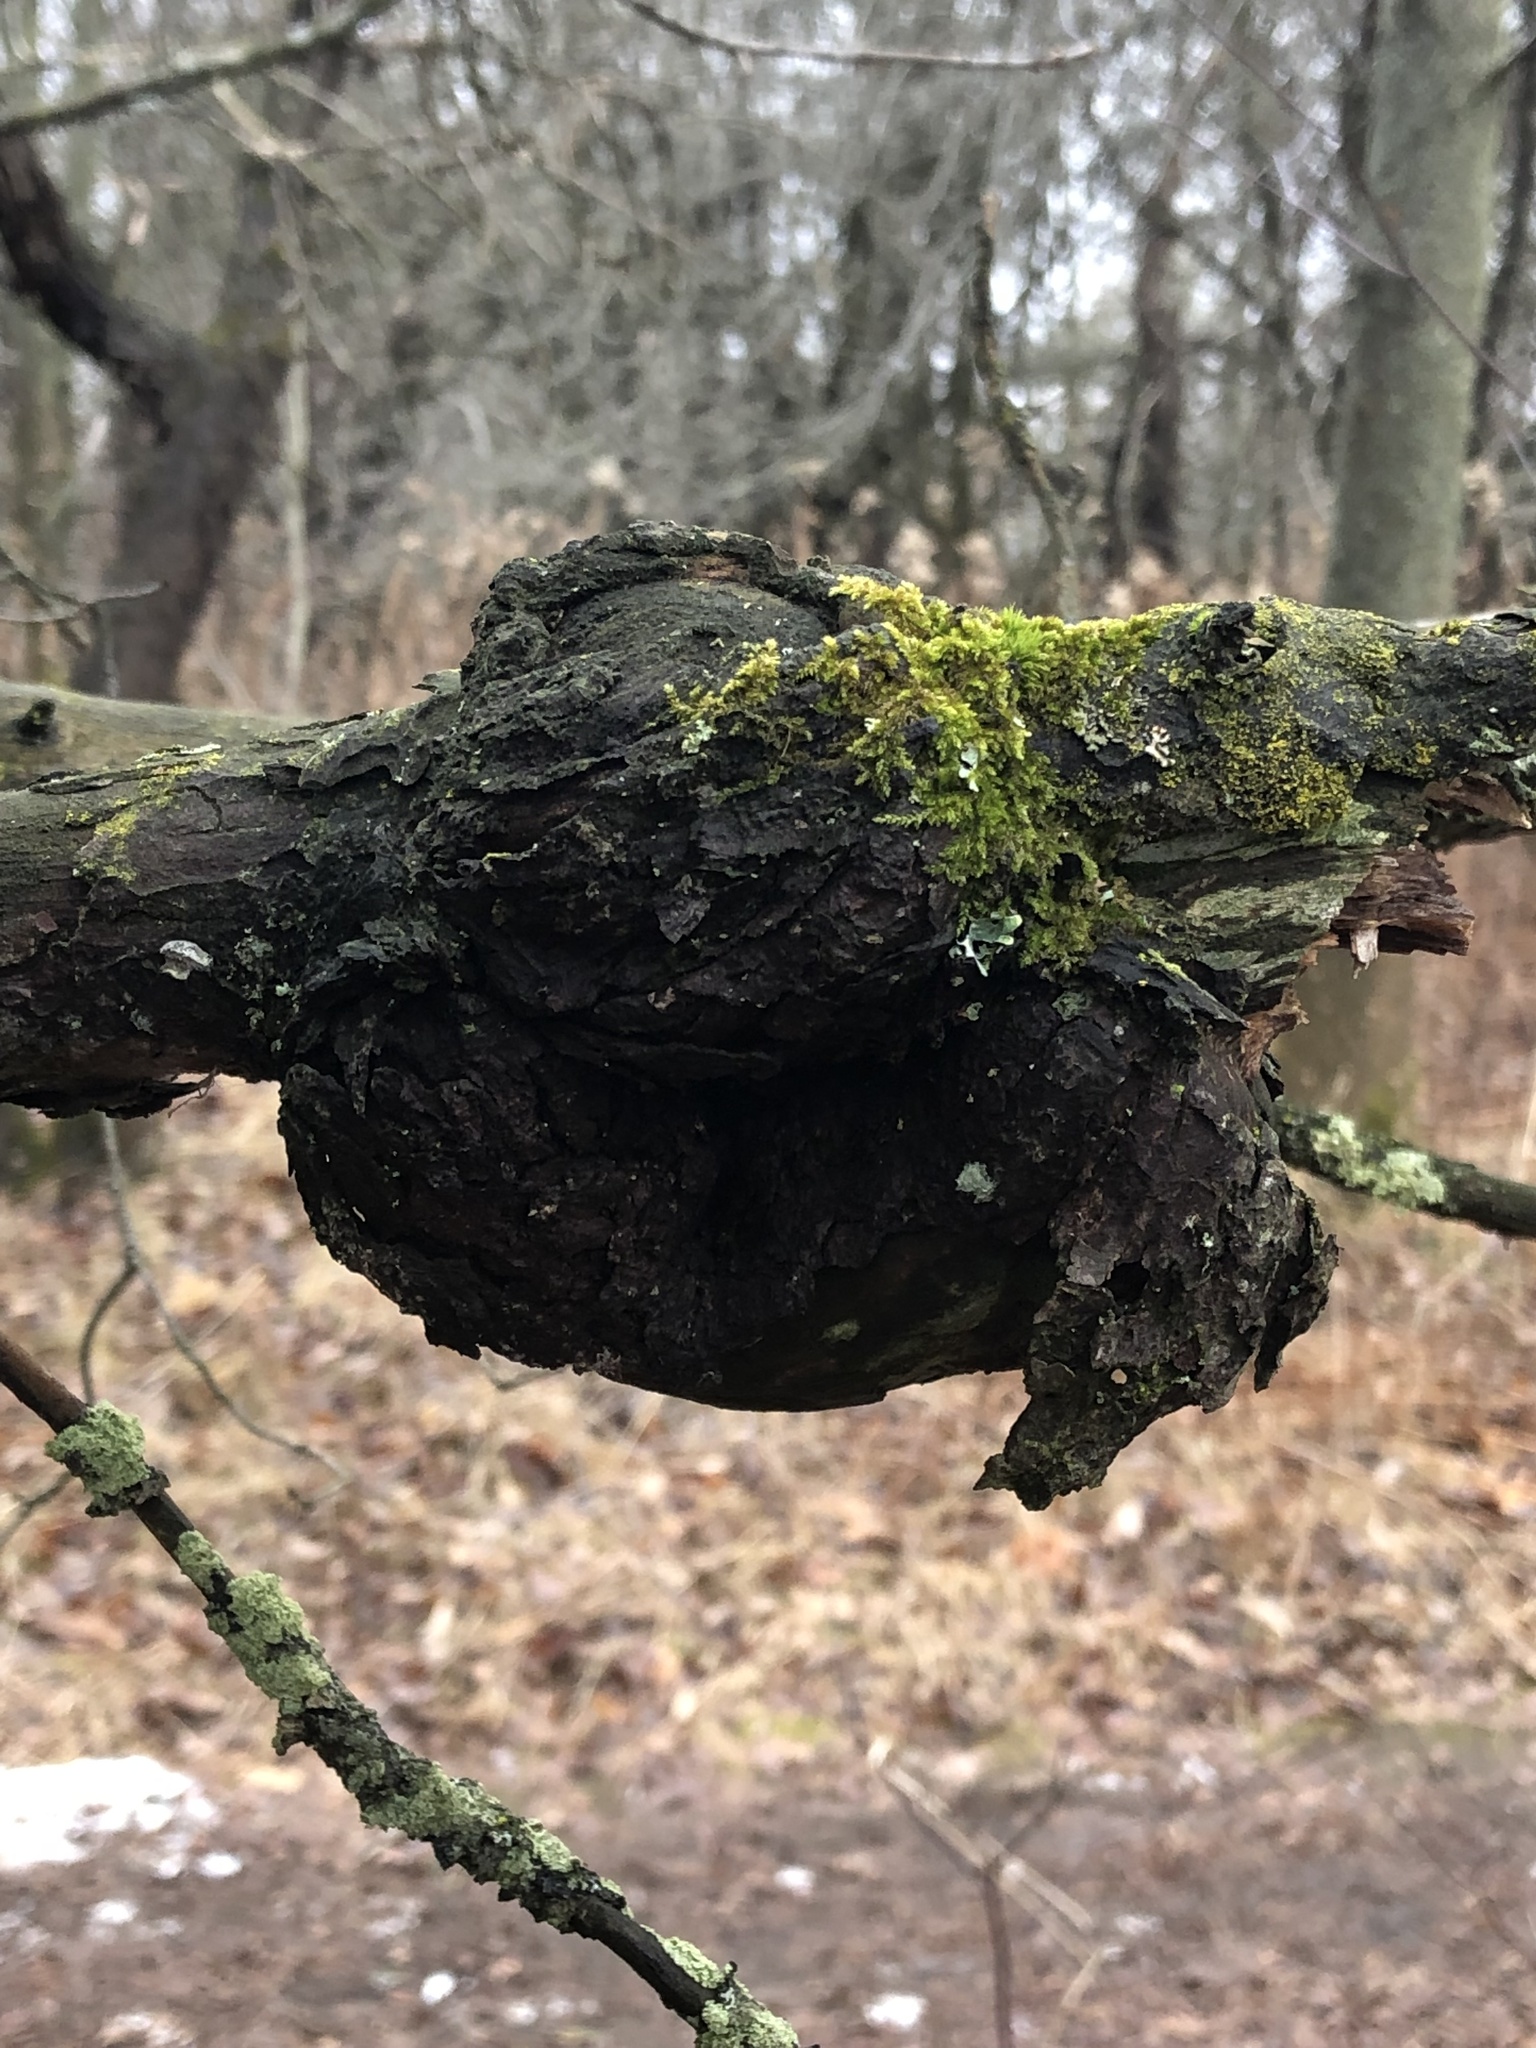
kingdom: Bacteria
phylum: Proteobacteria
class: Alphaproteobacteria
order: Rhizobiales
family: Rhizobiaceae
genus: Rhizobium
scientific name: Rhizobium Agrobacterium radiobacter
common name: Bacterial crown gall
